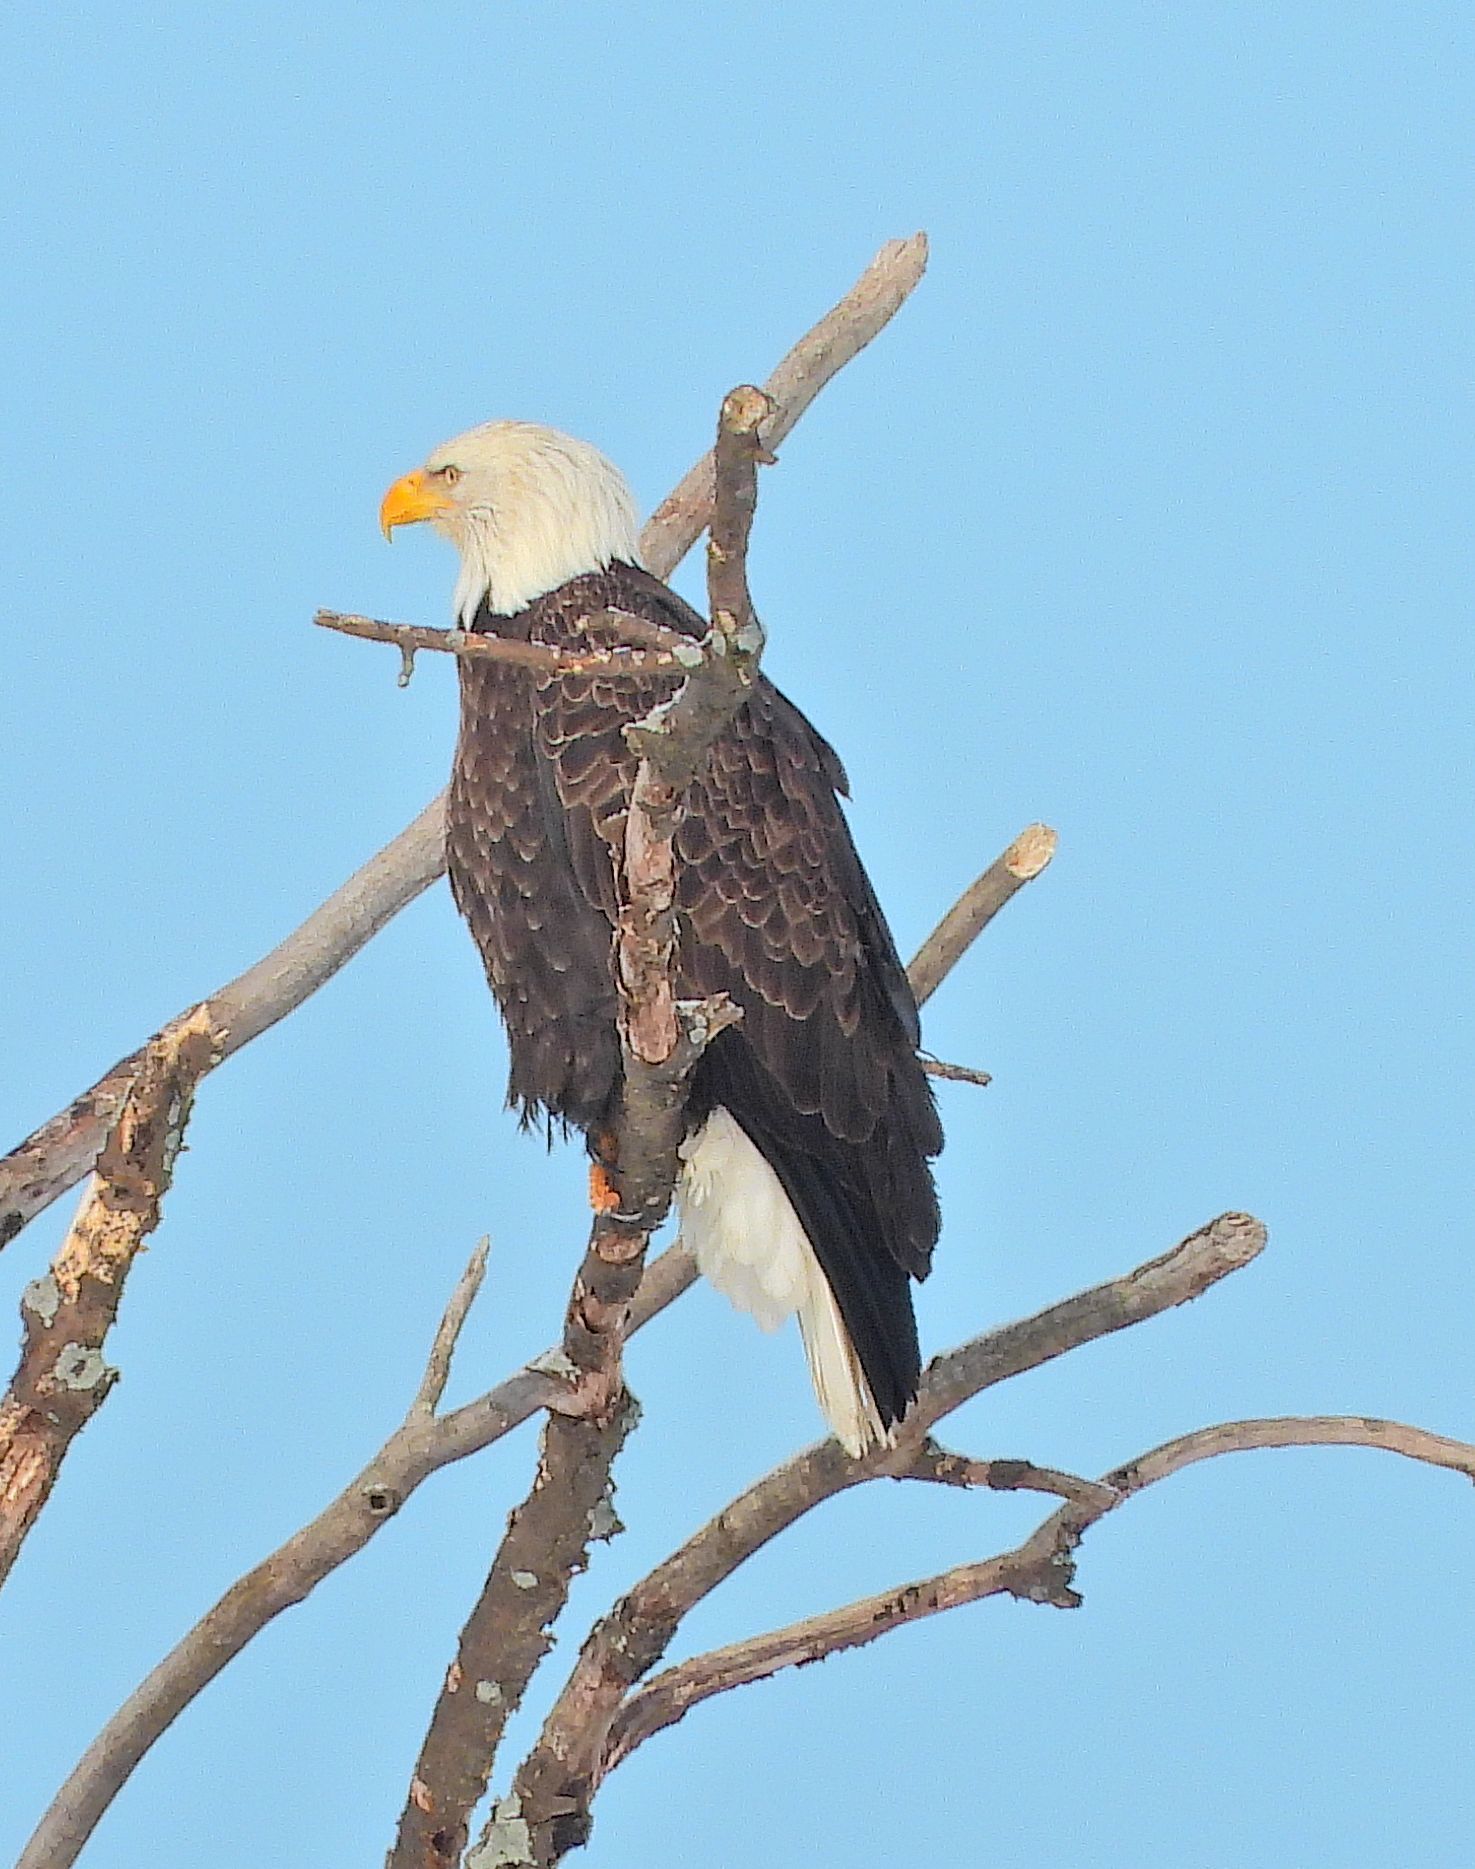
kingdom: Animalia
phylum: Chordata
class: Aves
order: Accipitriformes
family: Accipitridae
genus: Haliaeetus
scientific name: Haliaeetus leucocephalus
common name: Bald eagle
